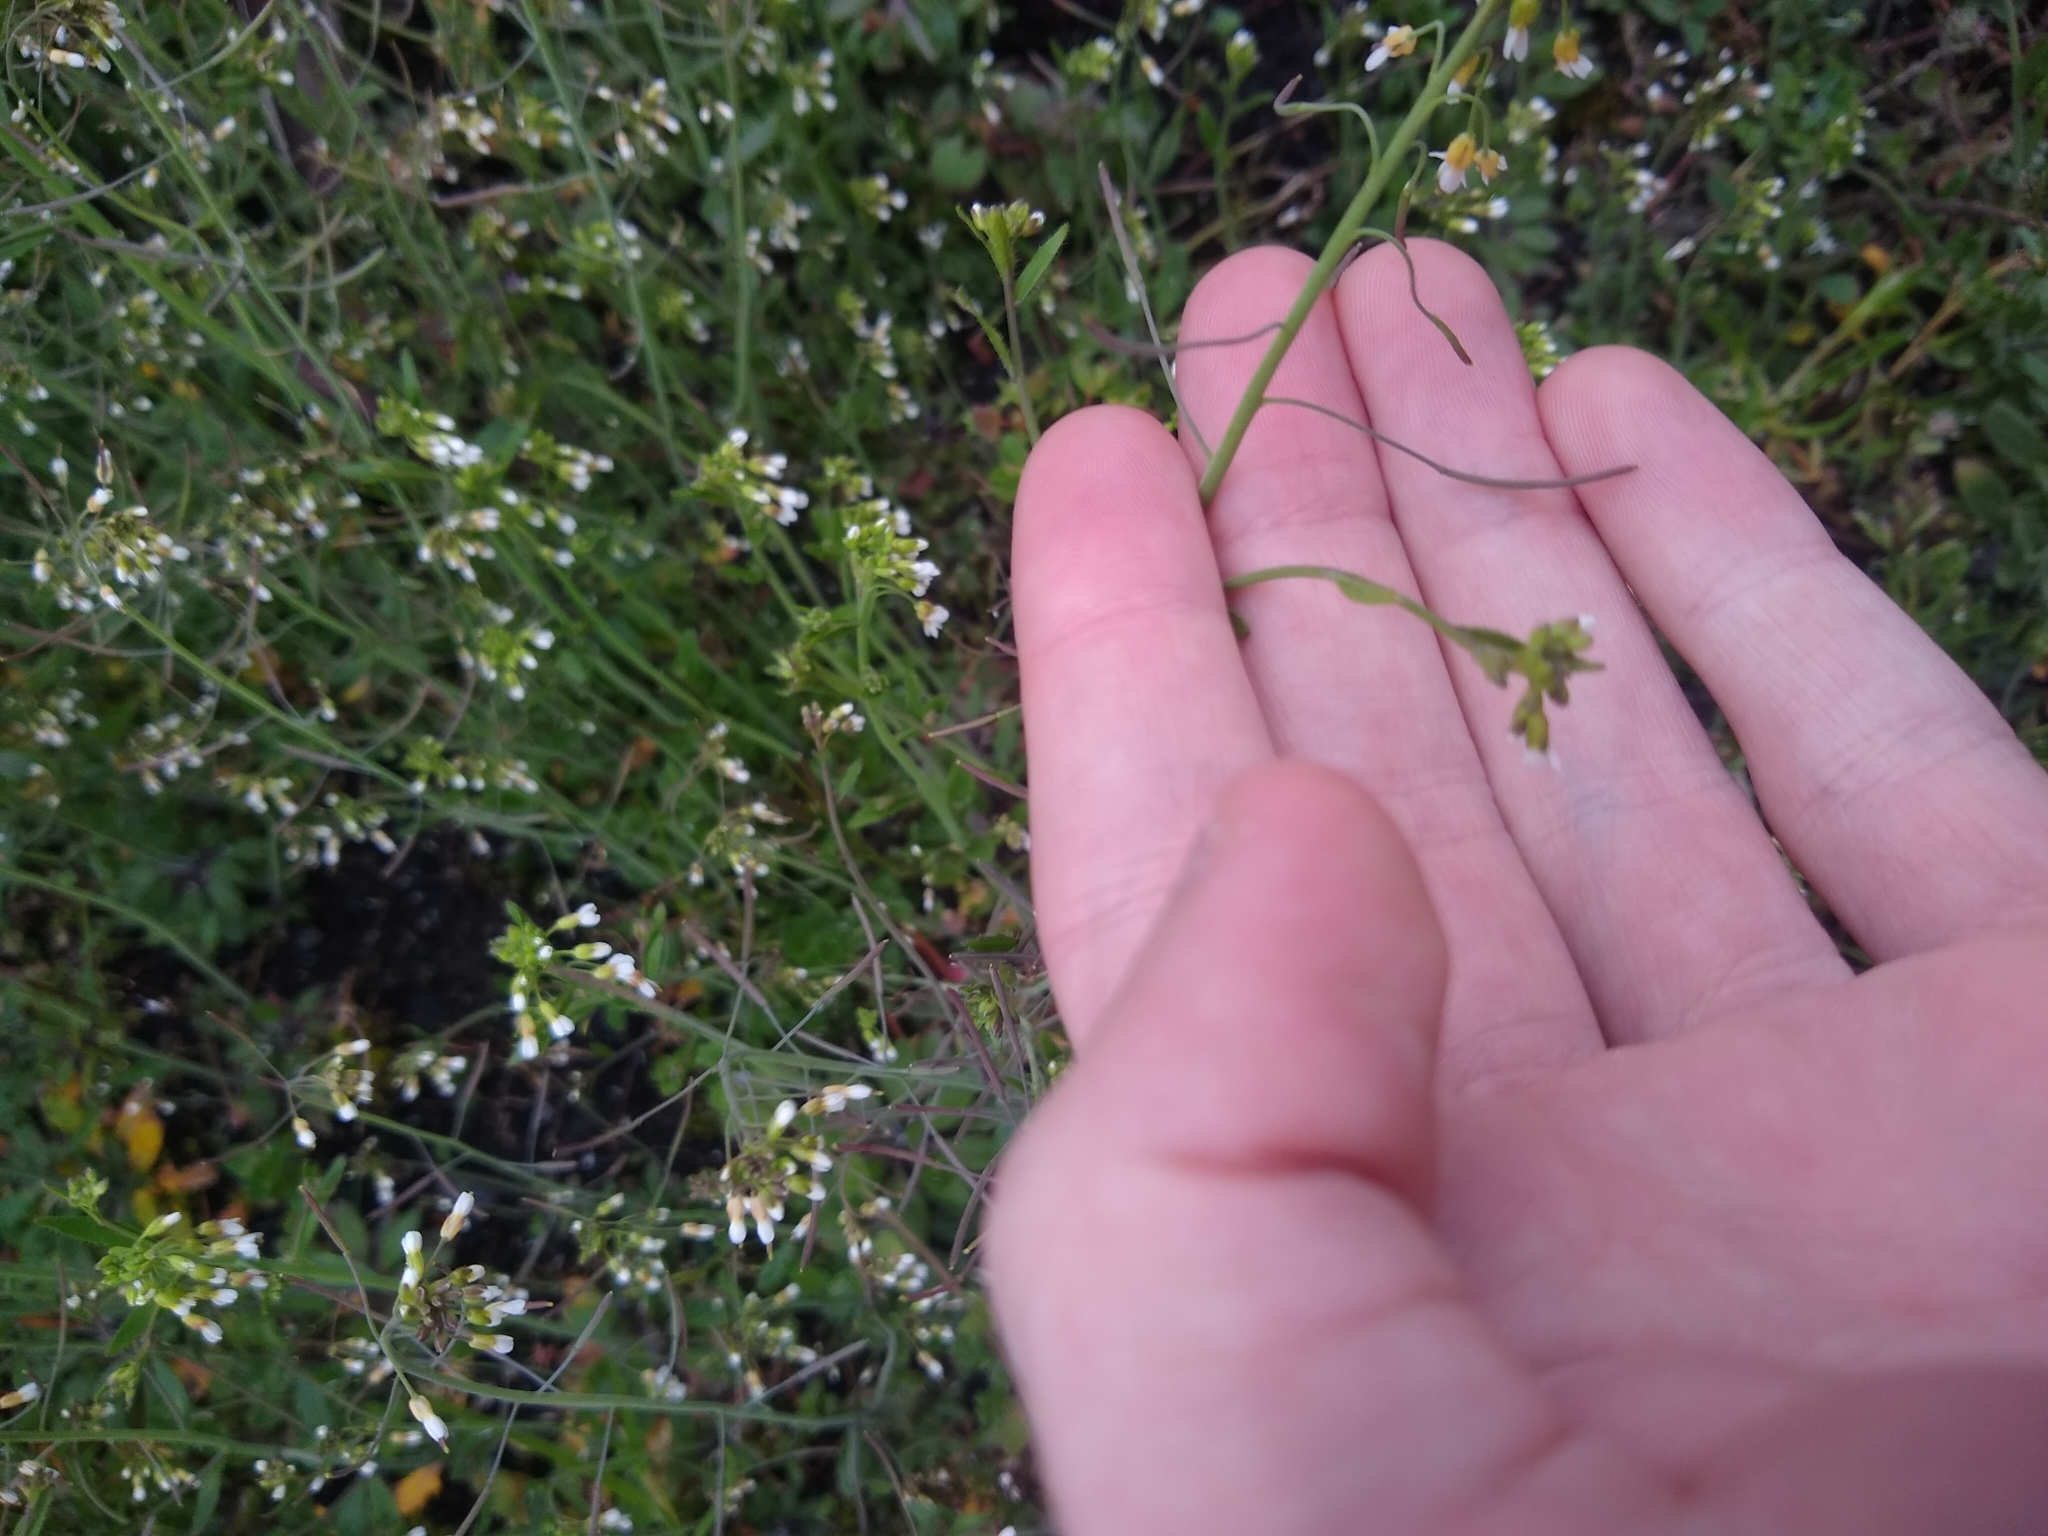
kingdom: Plantae
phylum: Tracheophyta
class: Magnoliopsida
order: Brassicales
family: Brassicaceae
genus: Arabidopsis
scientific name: Arabidopsis thaliana
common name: Thale cress
